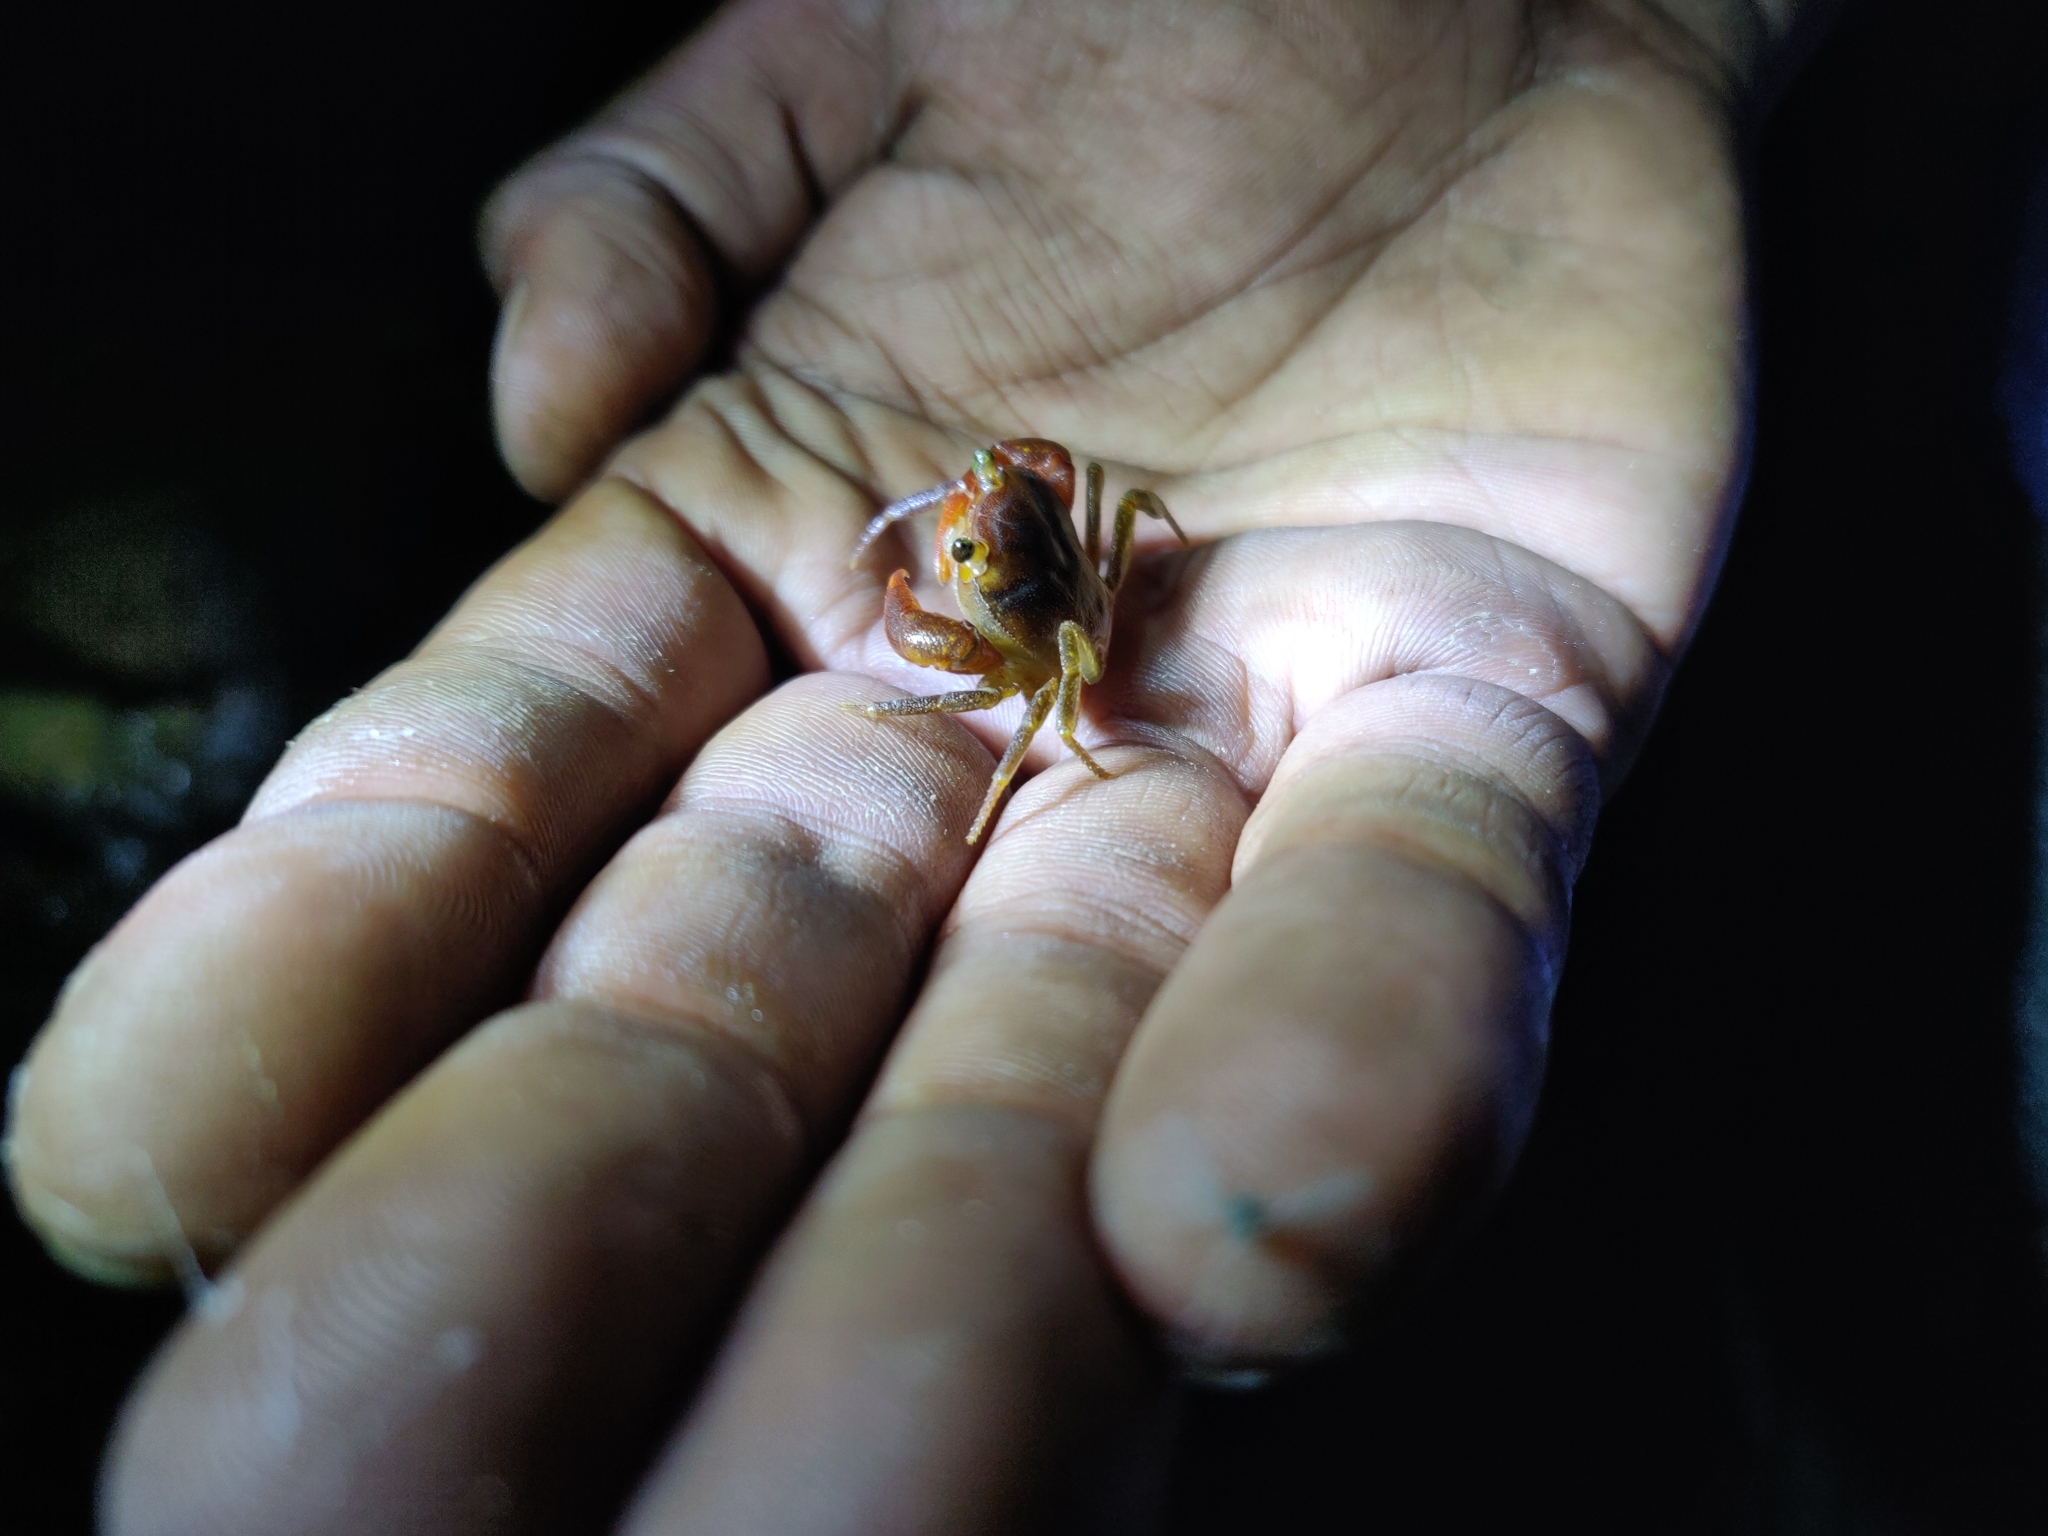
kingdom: Animalia
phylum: Arthropoda
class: Malacostraca
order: Decapoda
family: Pseudothelphusidae
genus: Rodriguezus
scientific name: Rodriguezus garmani
